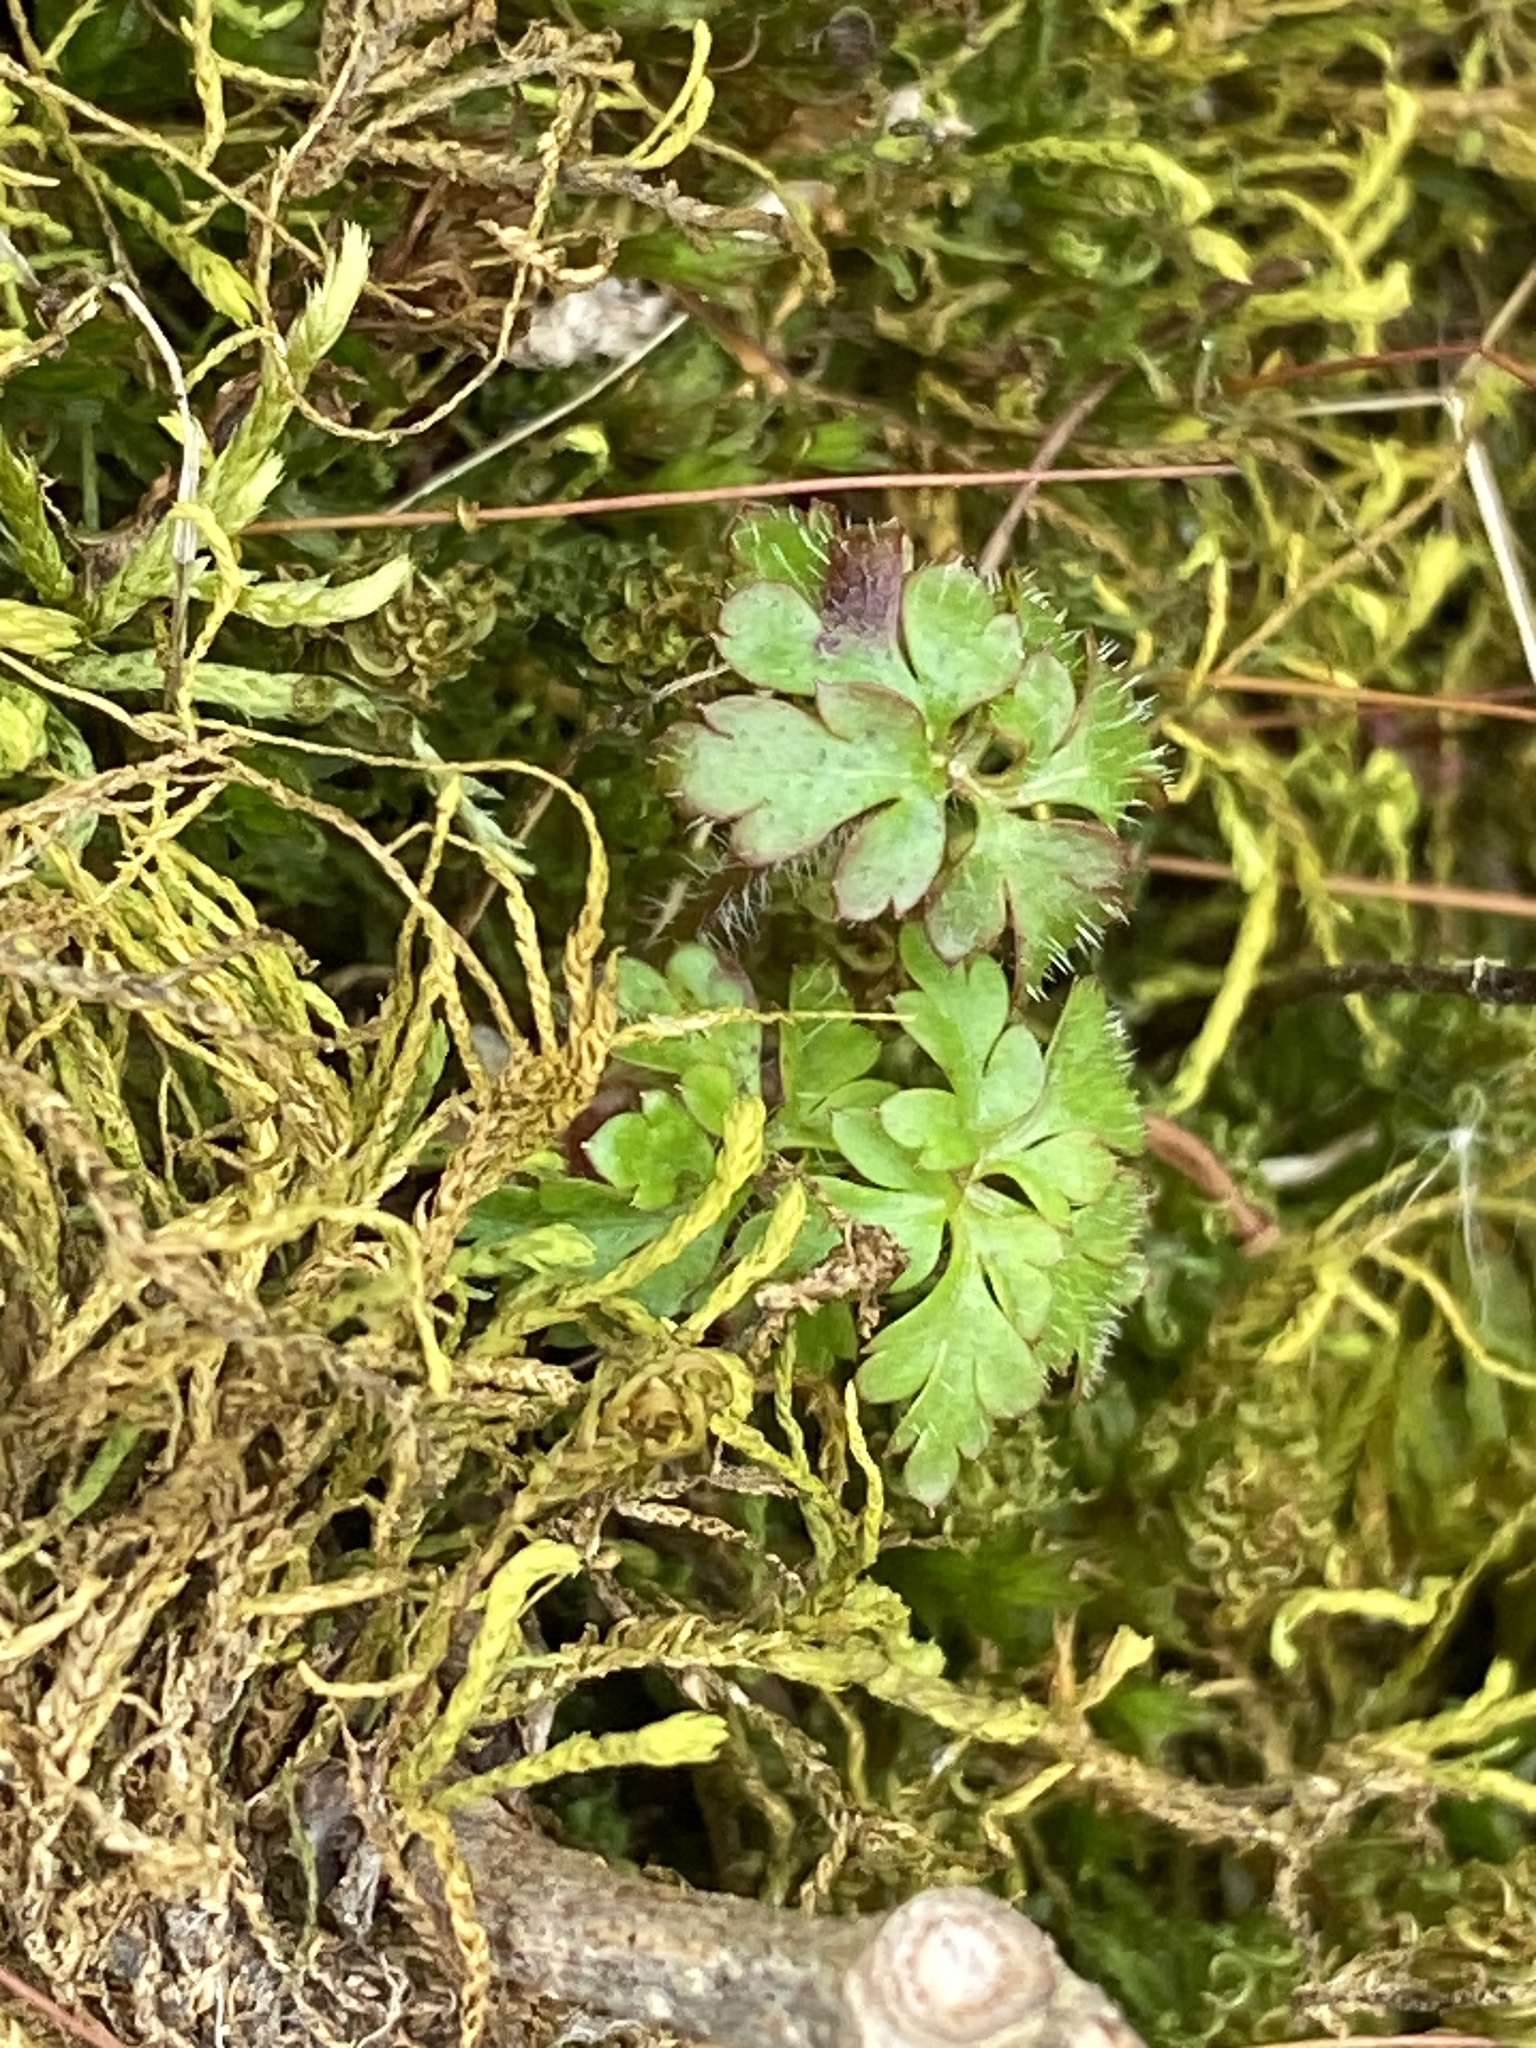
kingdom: Plantae
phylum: Tracheophyta
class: Magnoliopsida
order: Geraniales
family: Geraniaceae
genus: Geranium
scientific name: Geranium robertianum
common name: Herb-robert
